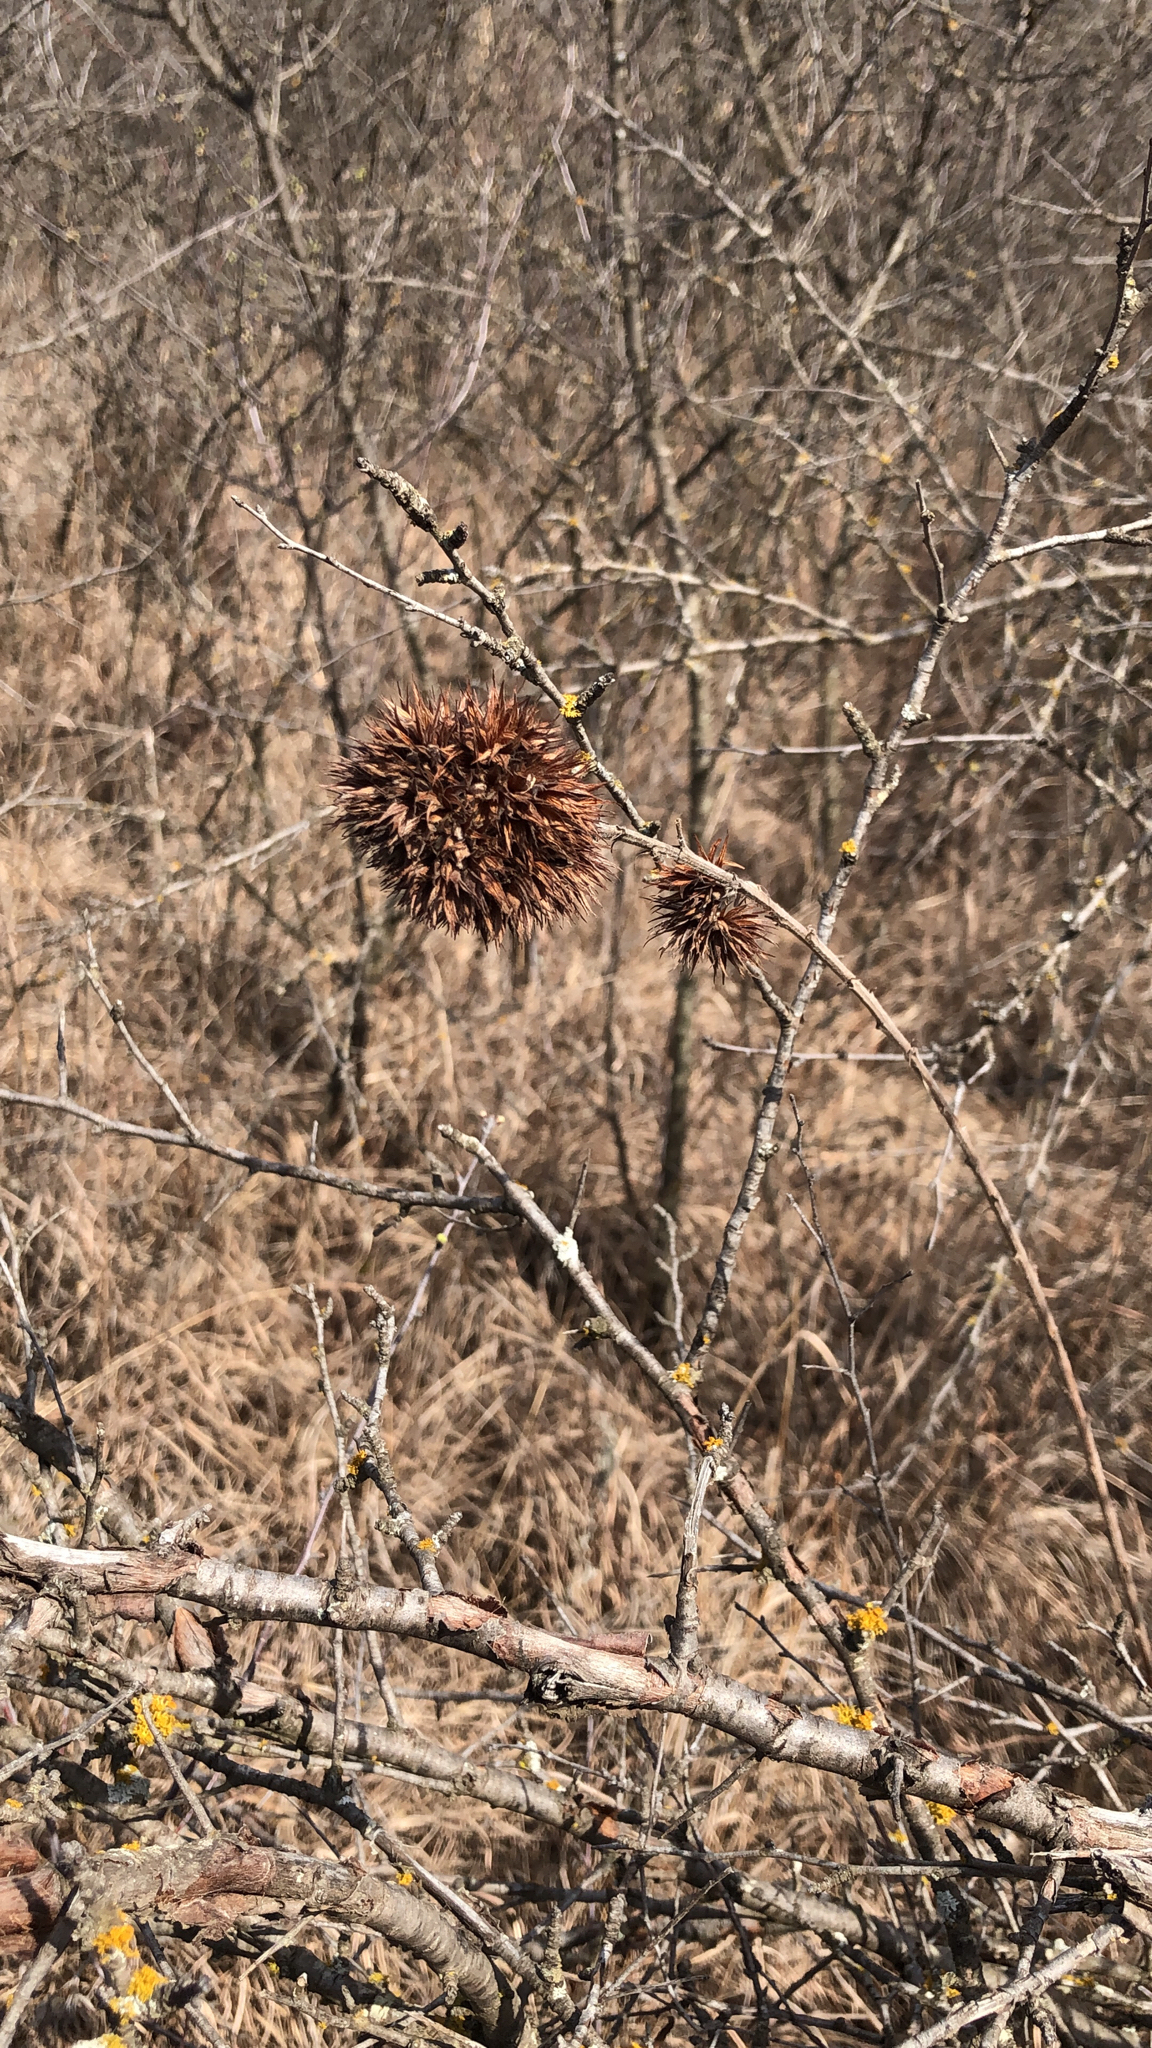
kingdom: Plantae
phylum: Tracheophyta
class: Magnoliopsida
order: Fabales
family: Fabaceae
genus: Lespedeza
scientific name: Lespedeza capitata
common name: Dusty clover
